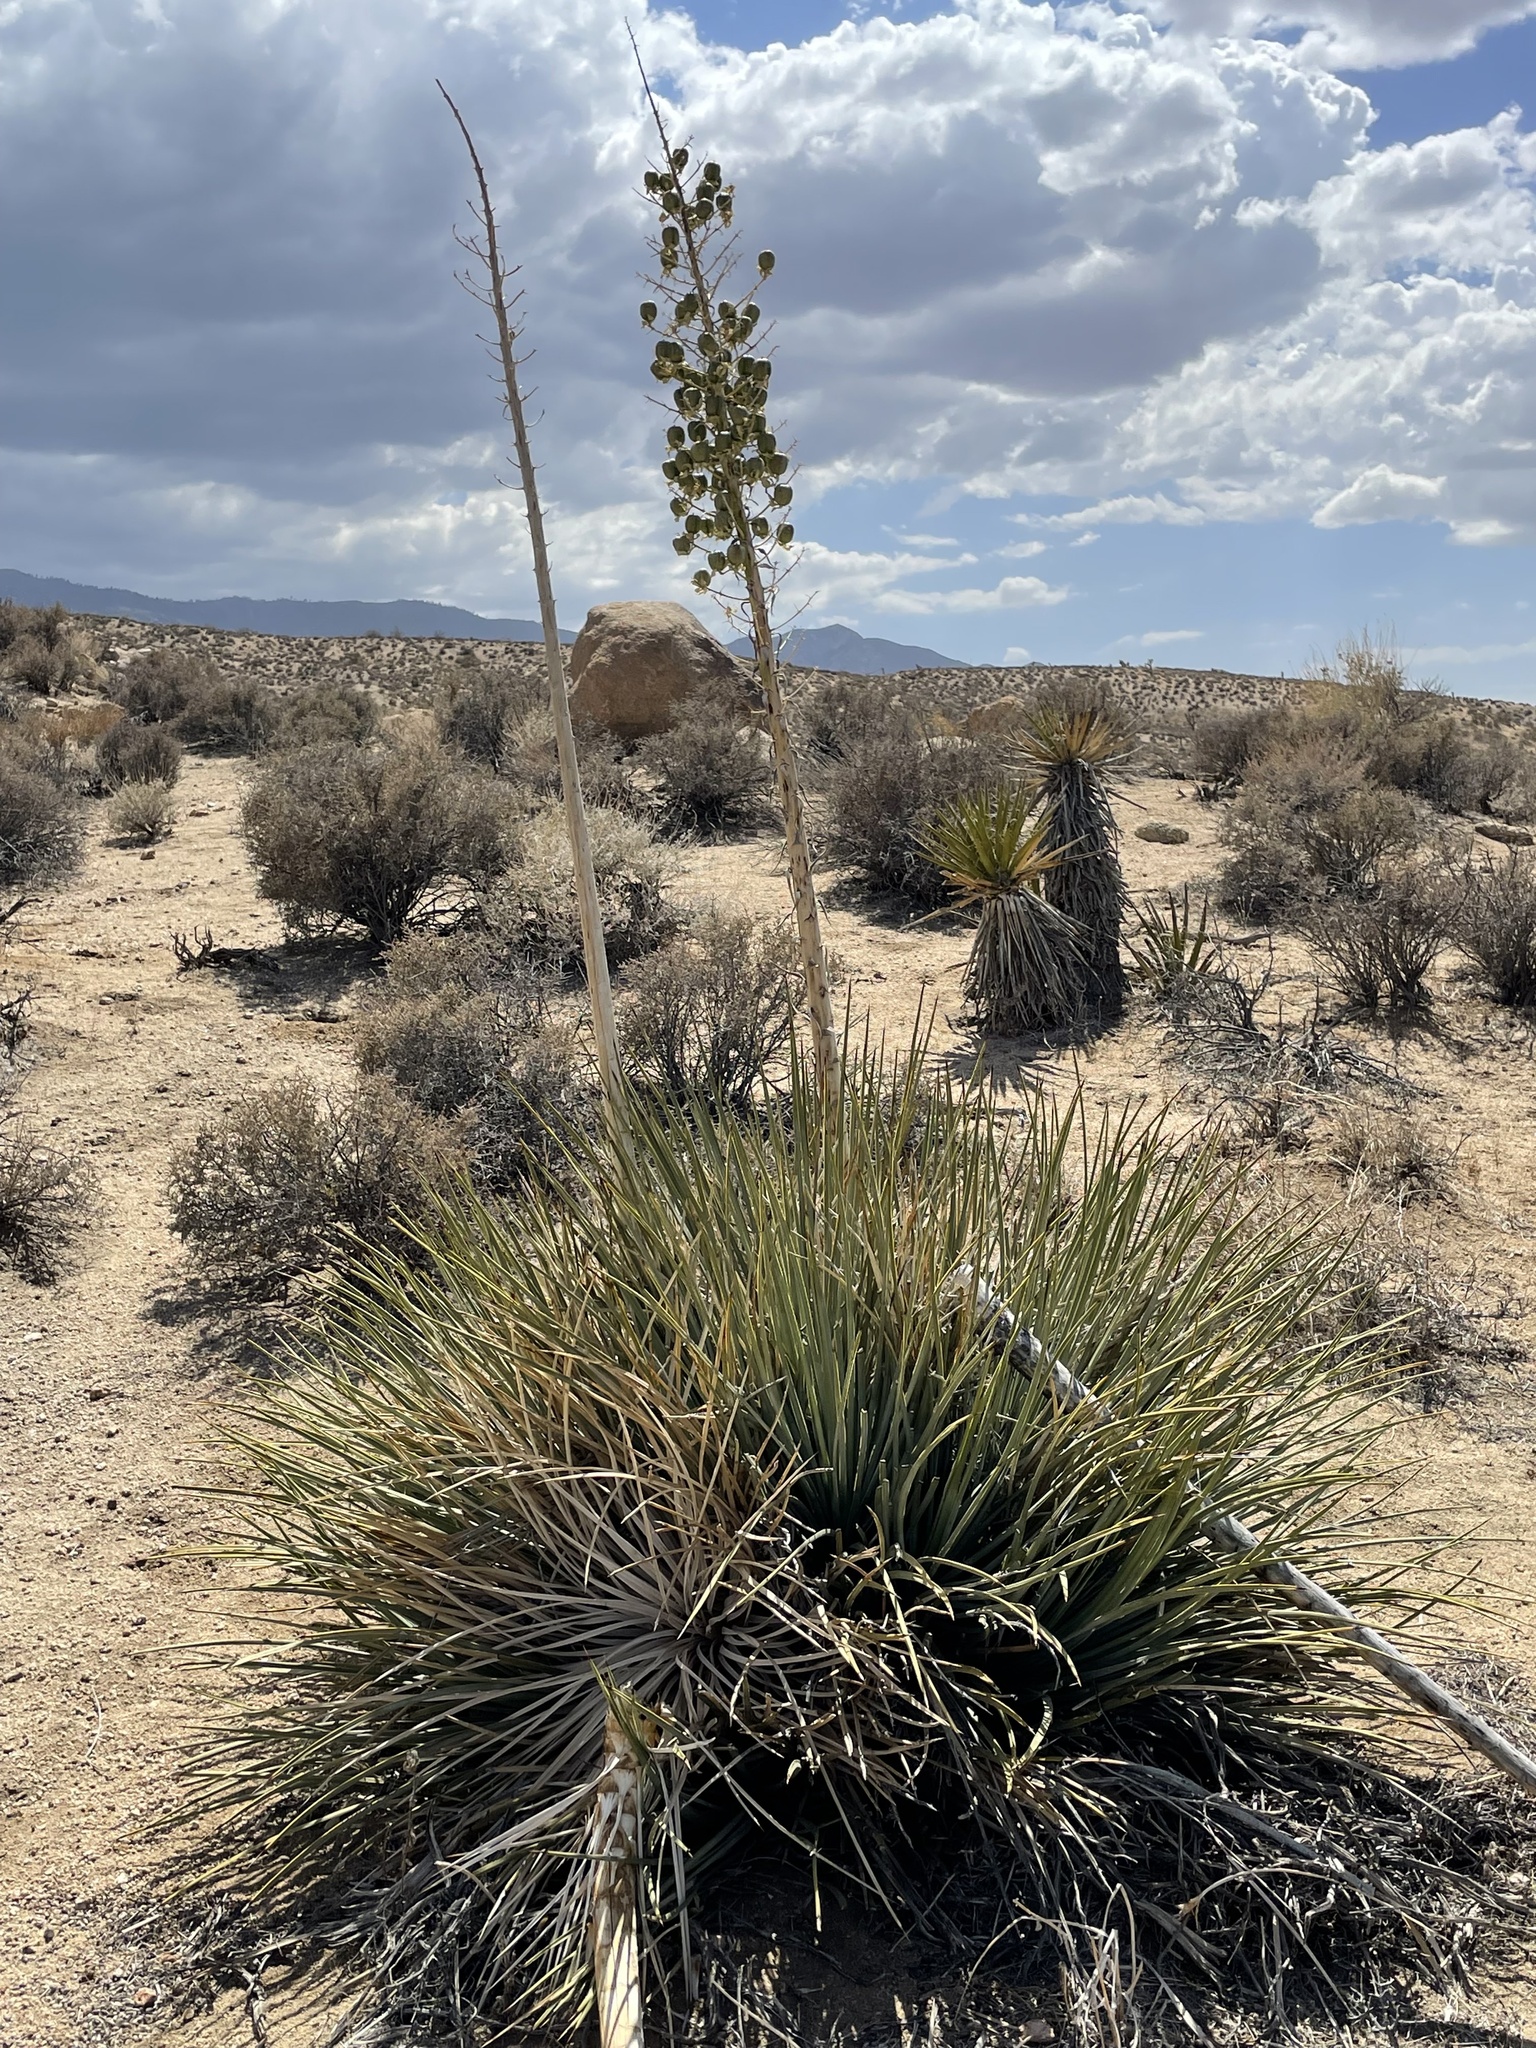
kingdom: Plantae
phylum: Tracheophyta
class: Liliopsida
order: Asparagales
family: Asparagaceae
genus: Hesperoyucca
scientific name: Hesperoyucca whipplei
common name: Our lord's-candle
